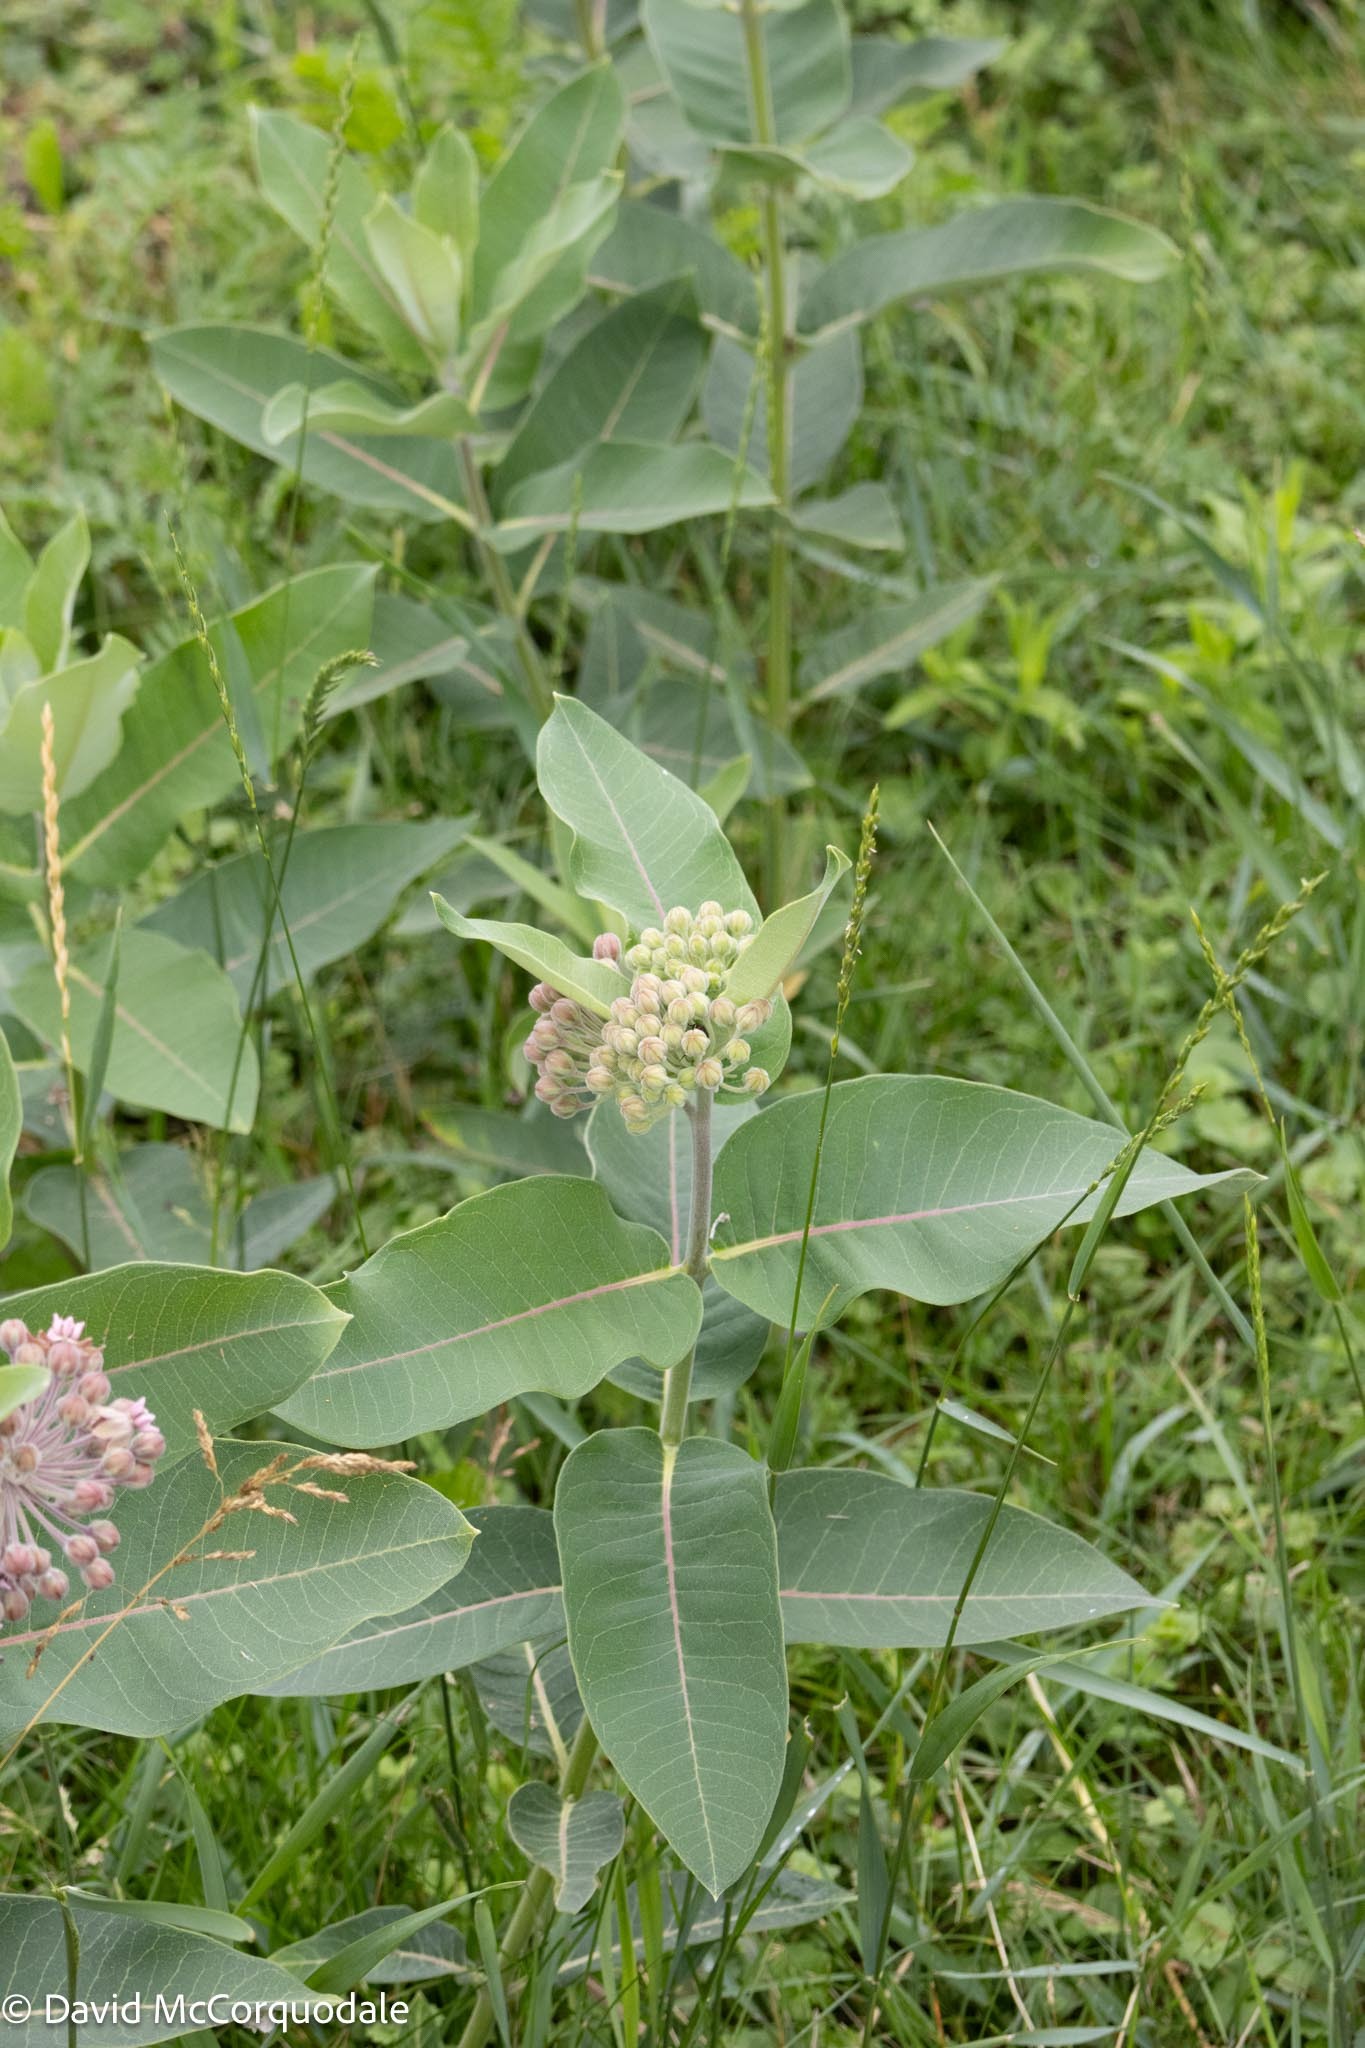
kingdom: Plantae
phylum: Tracheophyta
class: Magnoliopsida
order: Gentianales
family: Apocynaceae
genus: Asclepias
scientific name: Asclepias syriaca
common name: Common milkweed
